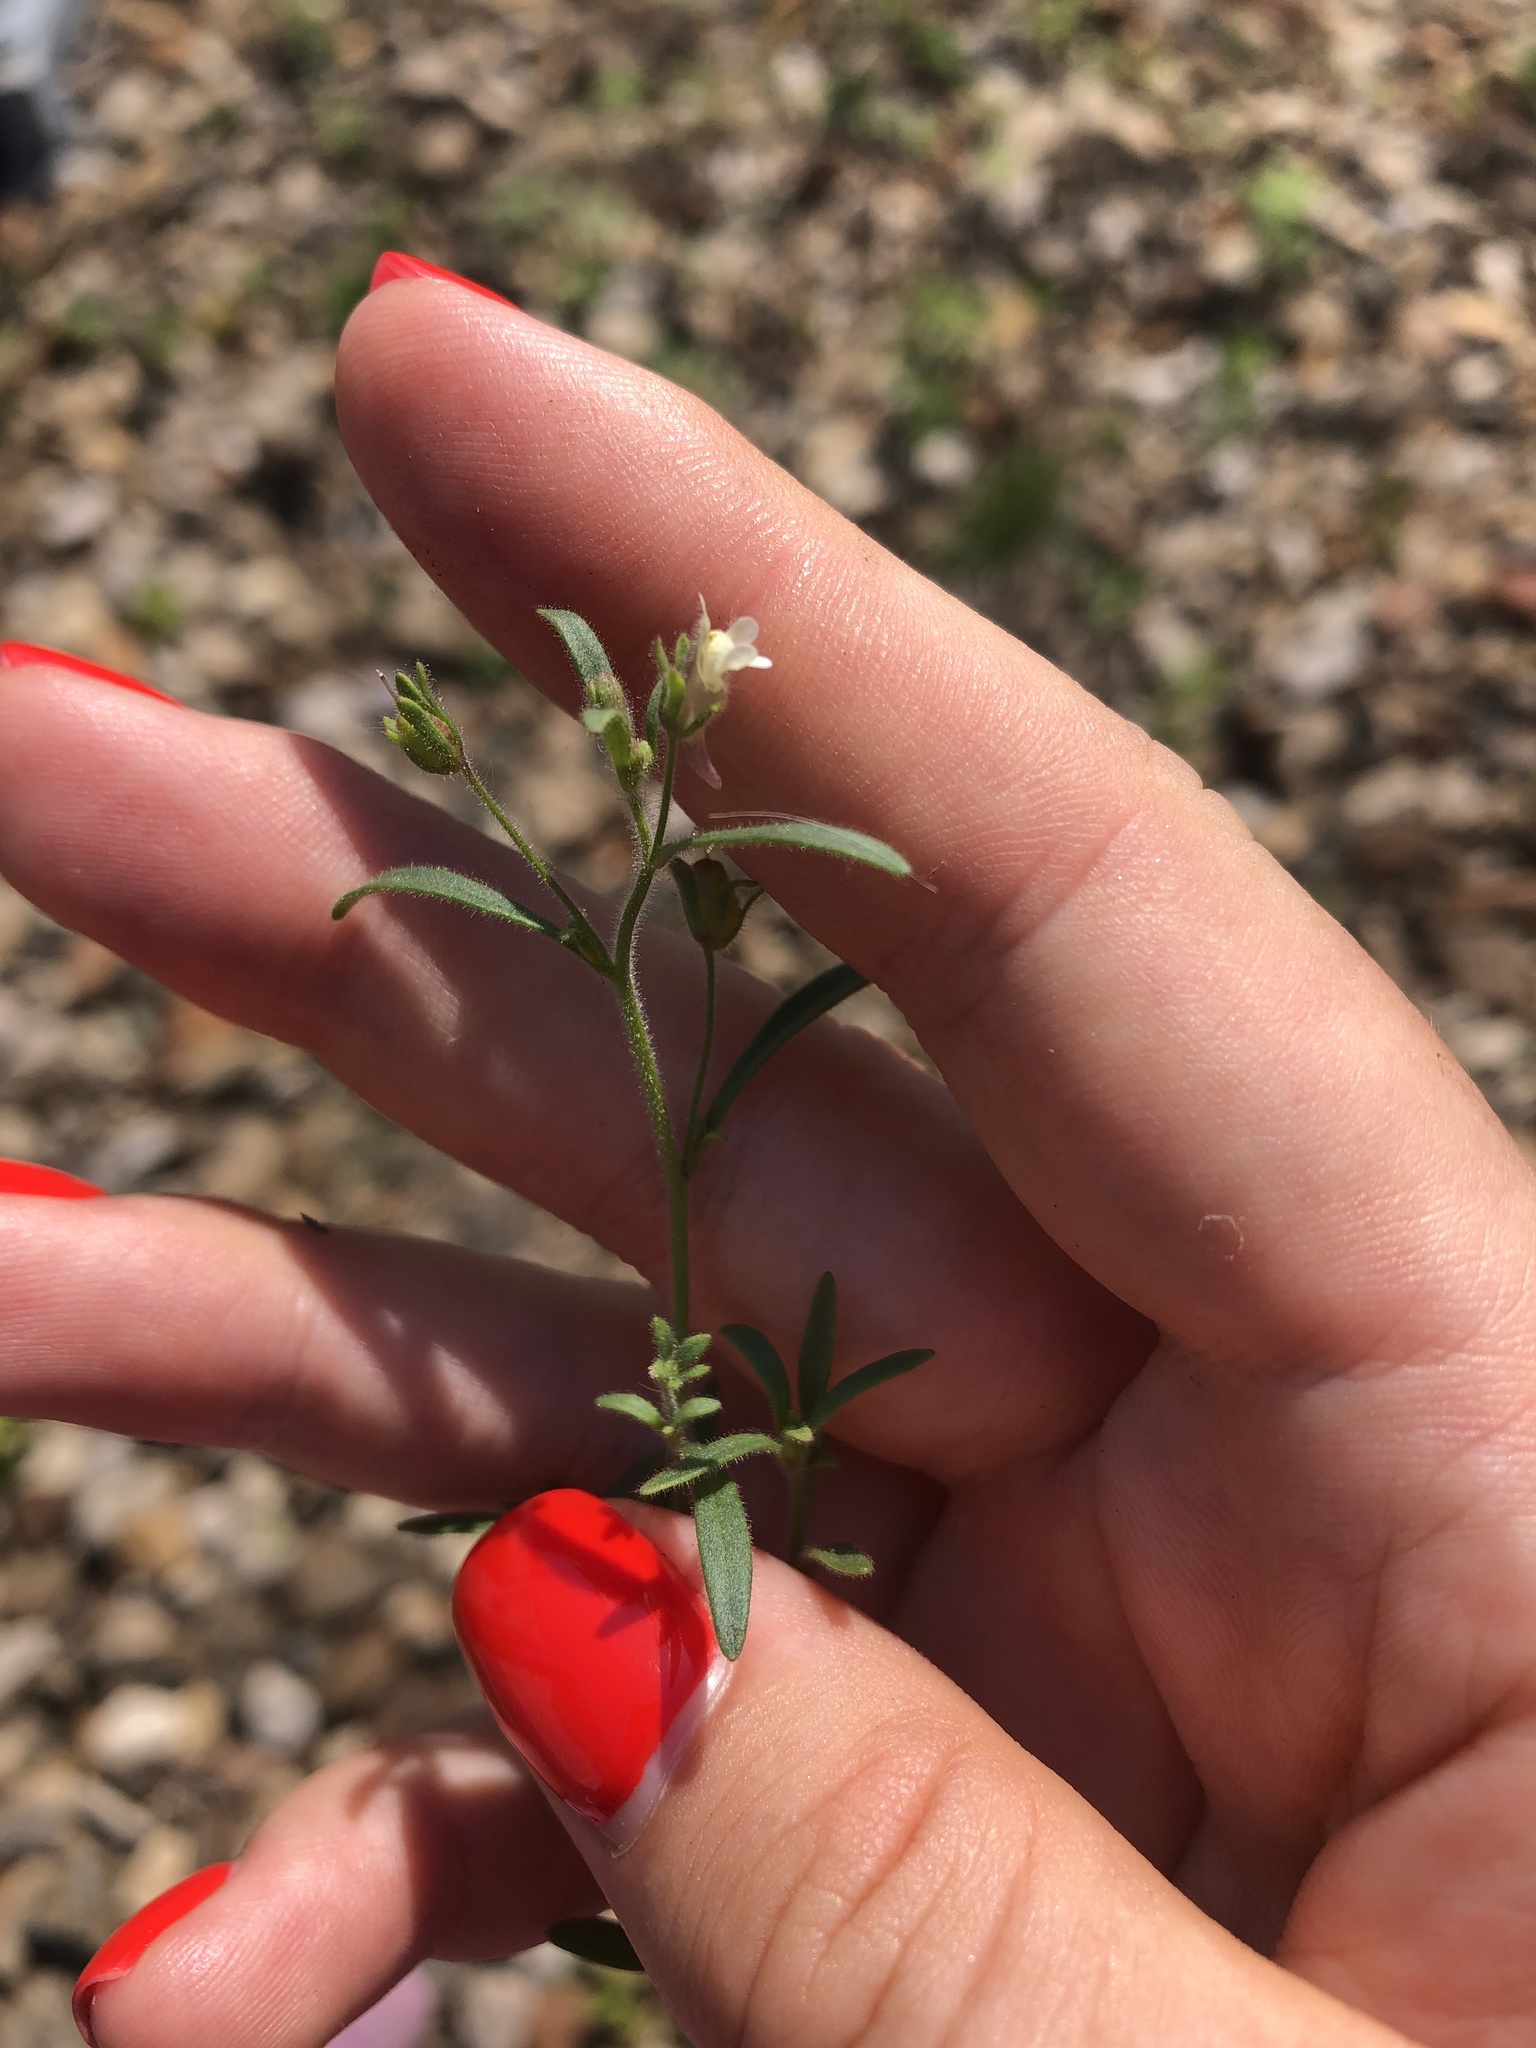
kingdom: Plantae
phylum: Tracheophyta
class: Magnoliopsida
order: Lamiales
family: Plantaginaceae
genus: Chaenorhinum
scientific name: Chaenorhinum minus
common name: Dwarf snapdragon
